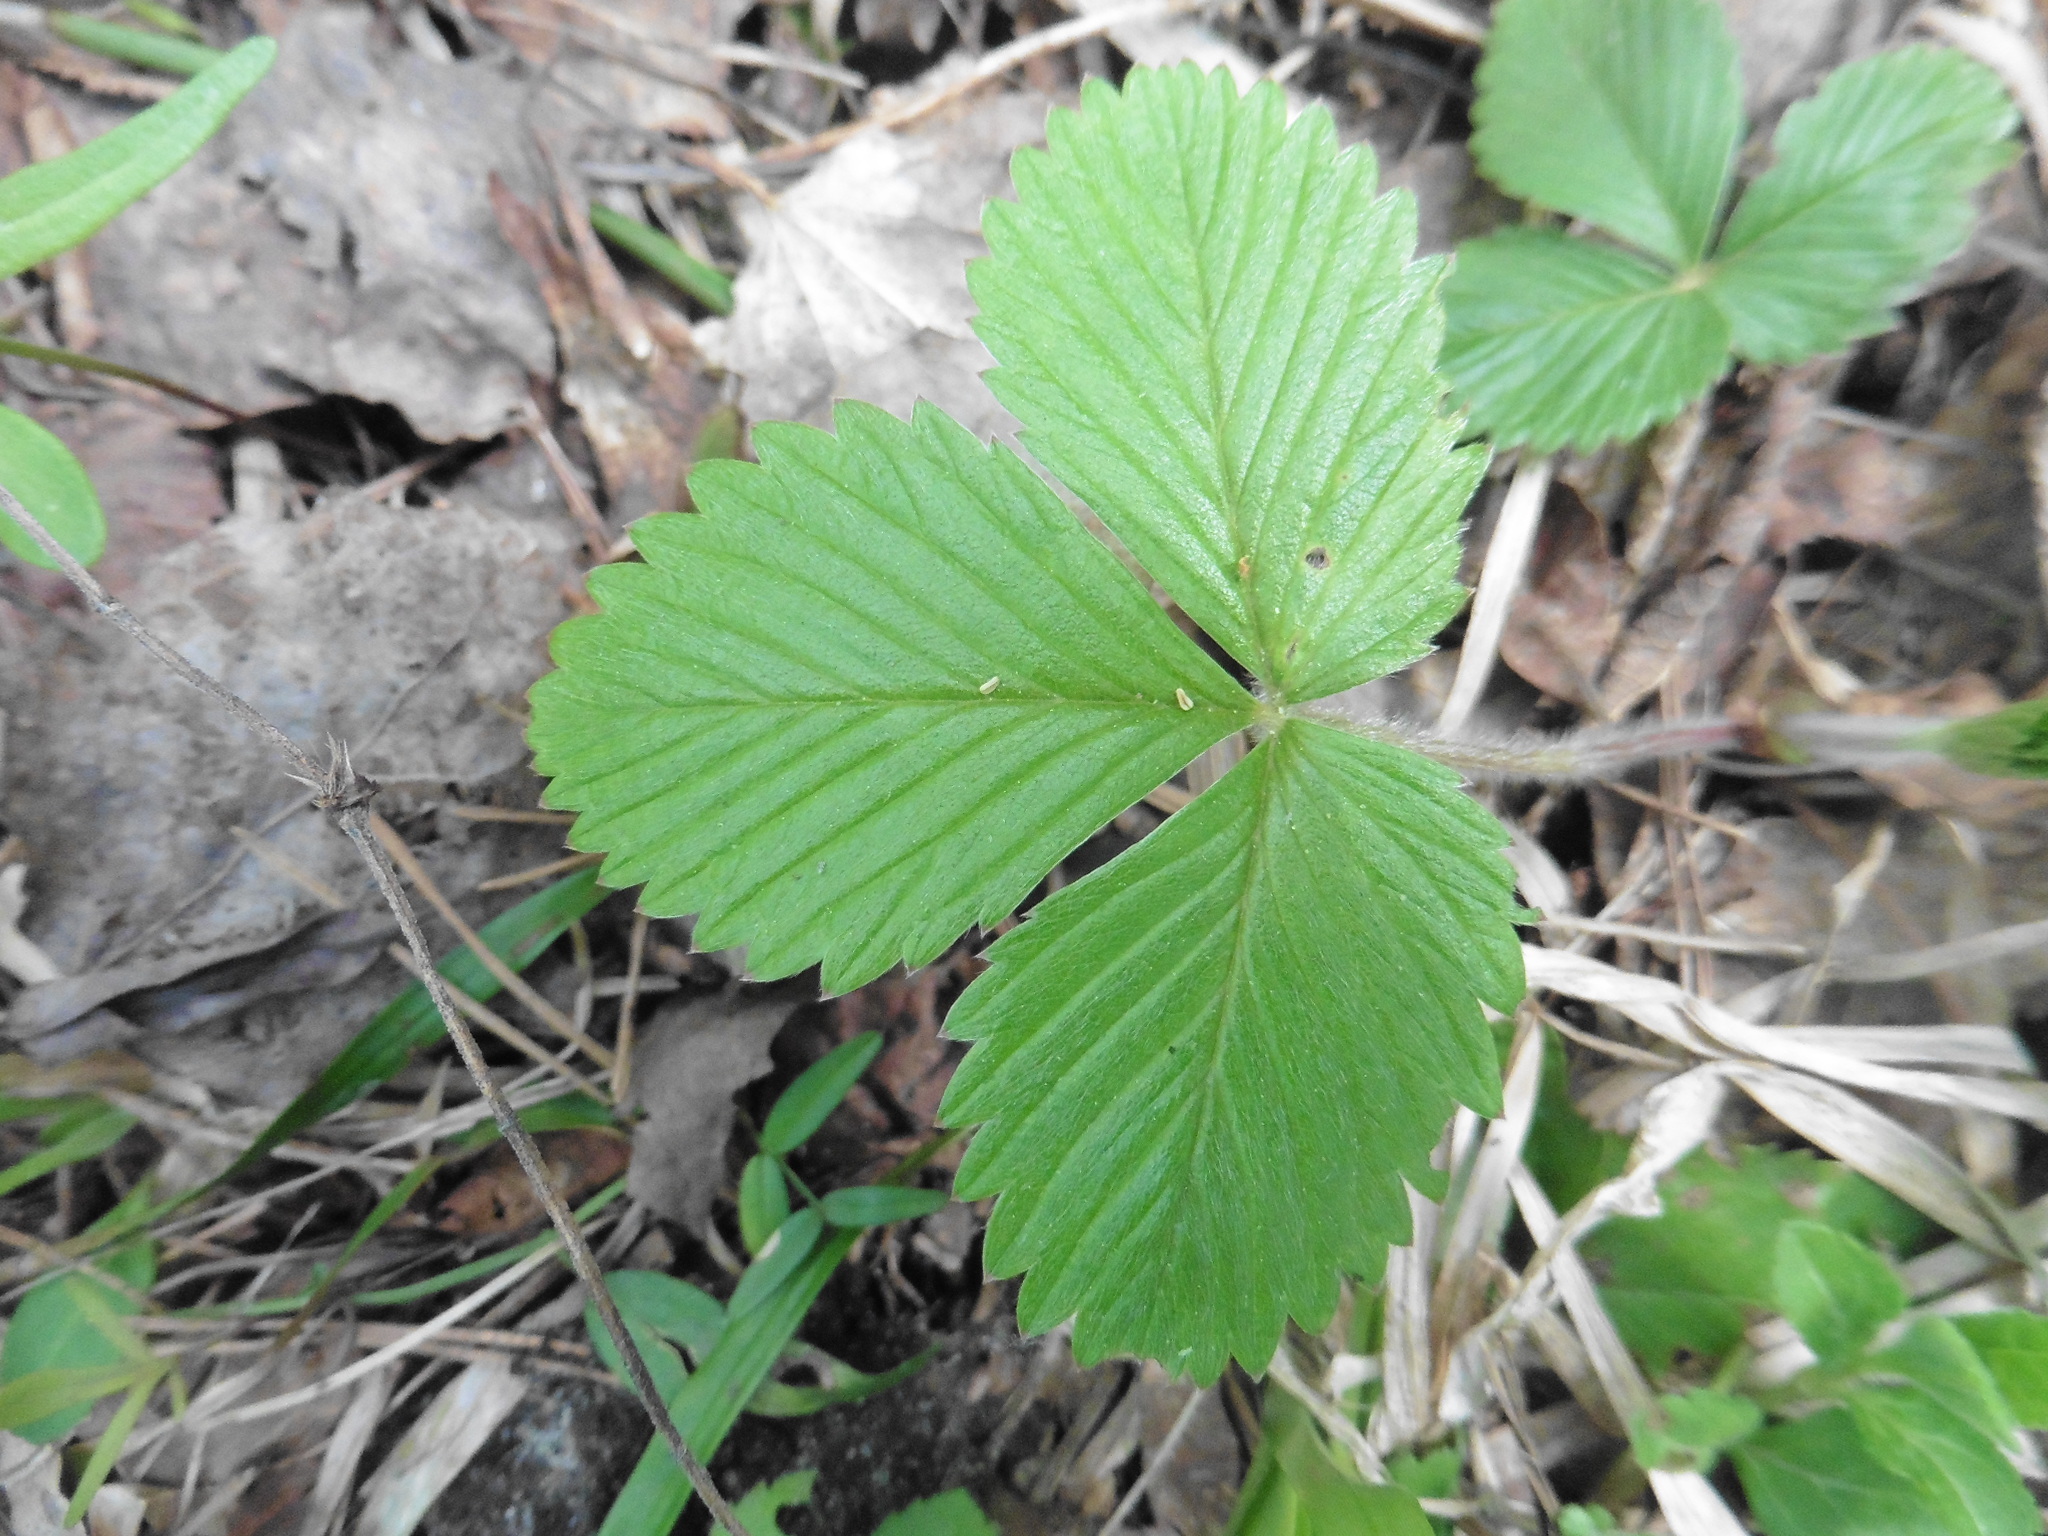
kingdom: Plantae
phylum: Tracheophyta
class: Magnoliopsida
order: Rosales
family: Rosaceae
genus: Fragaria
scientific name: Fragaria vesca
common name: Wild strawberry
